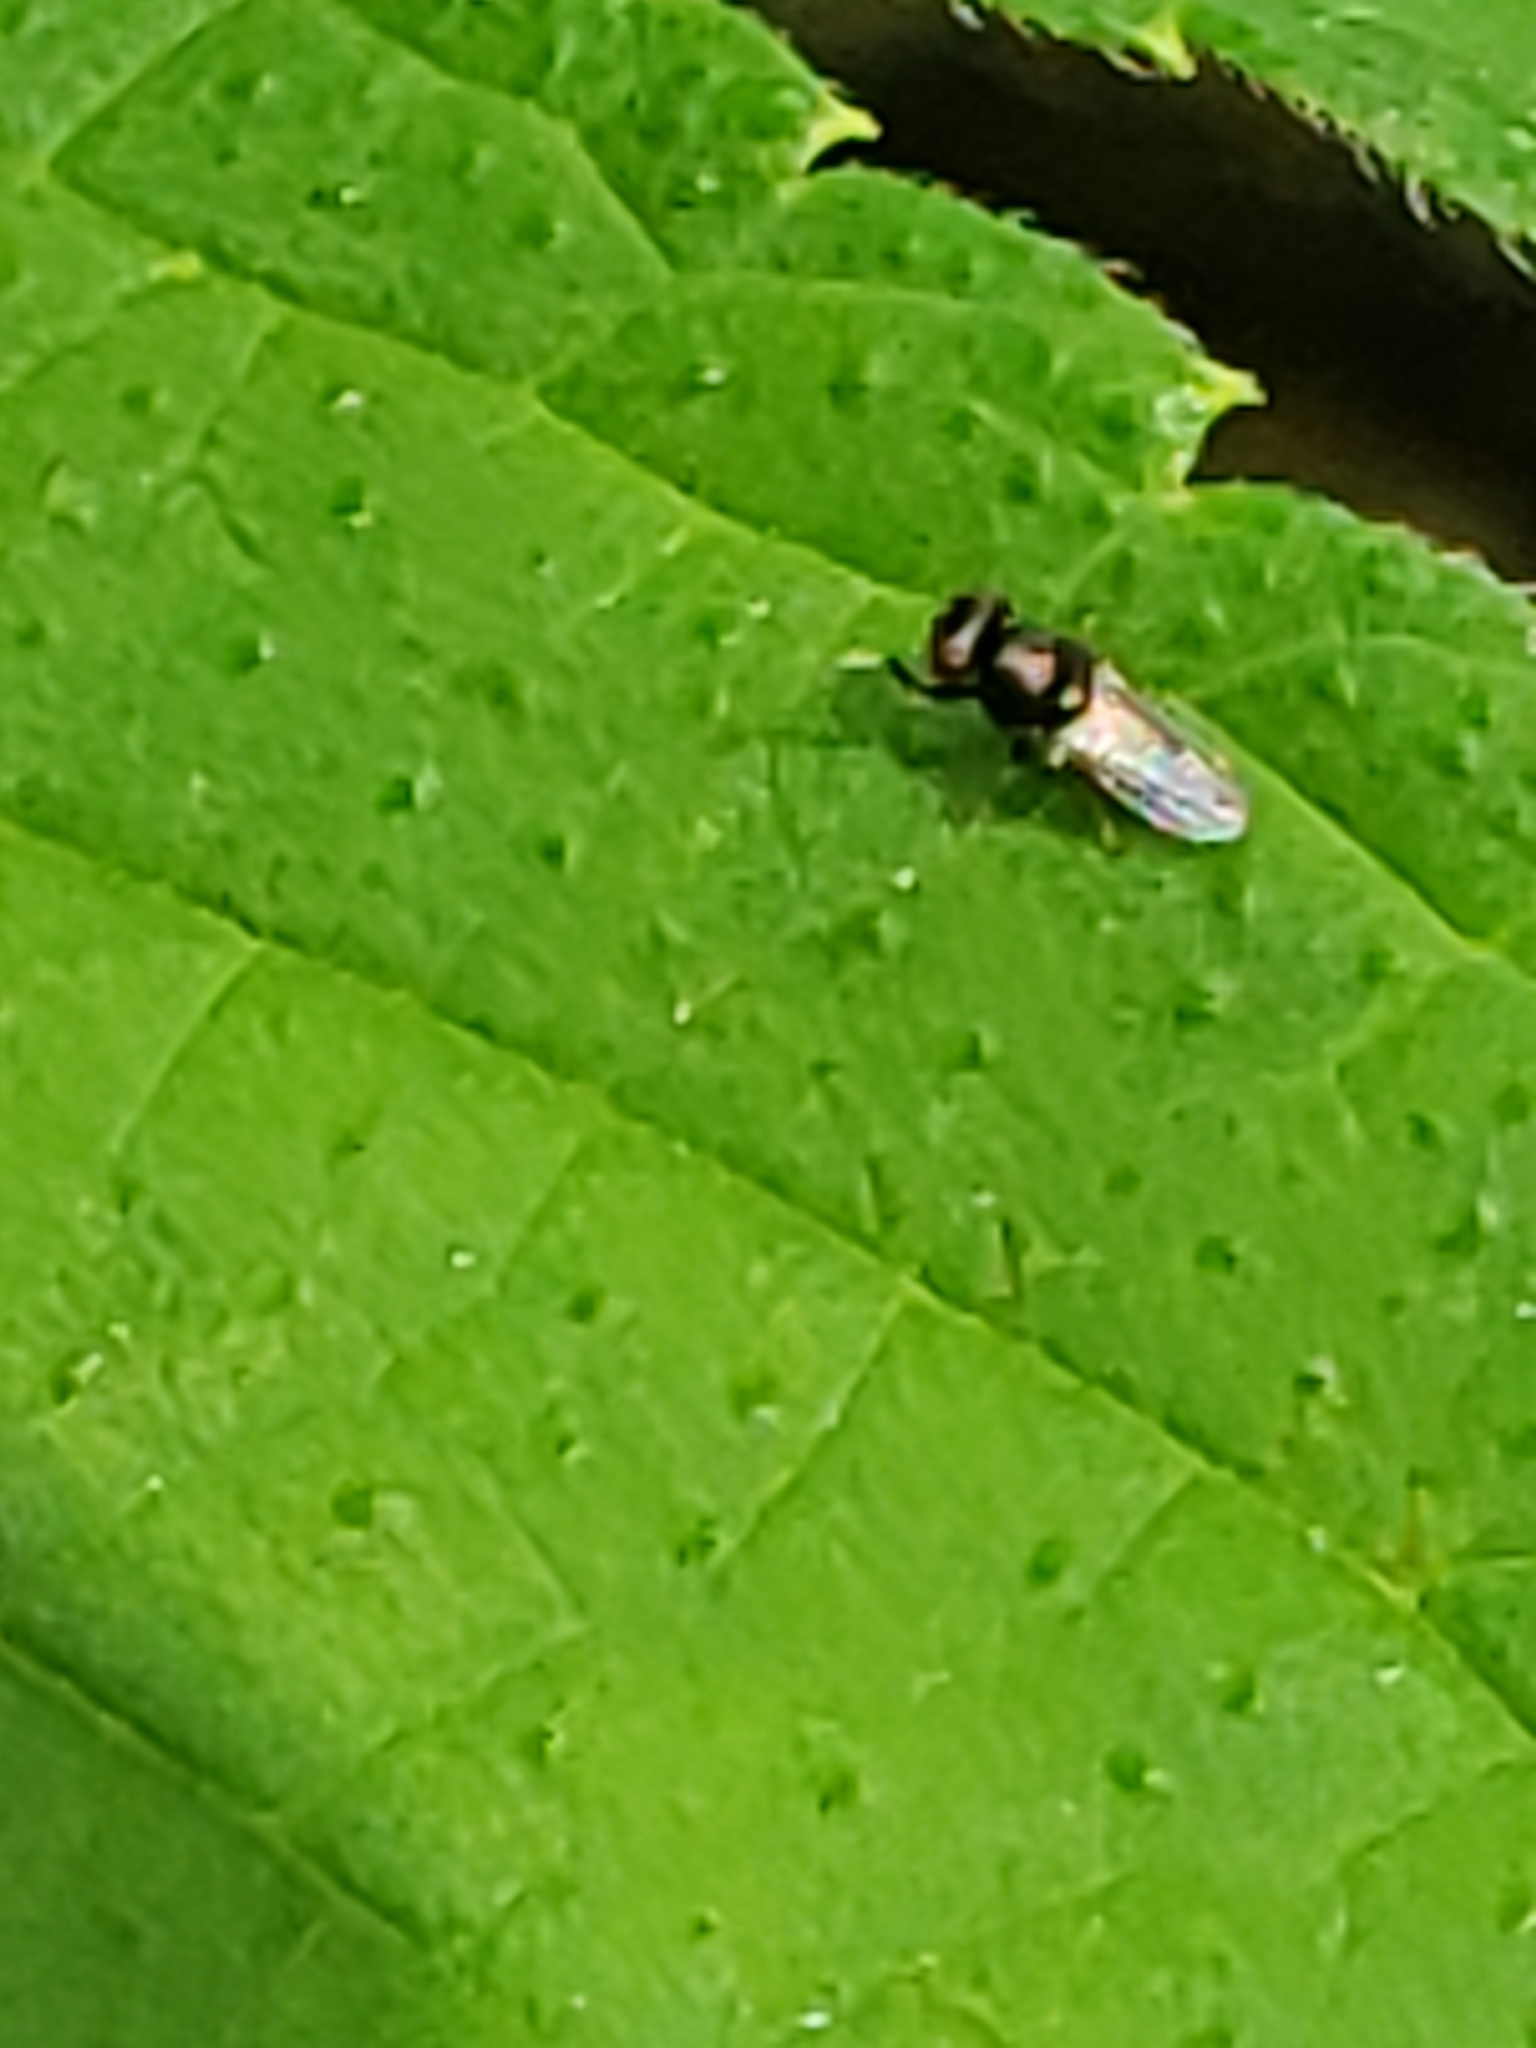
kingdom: Animalia
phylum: Arthropoda
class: Insecta
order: Diptera
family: Ephydridae
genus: Athyroglossa
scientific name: Athyroglossa glaphyropus
